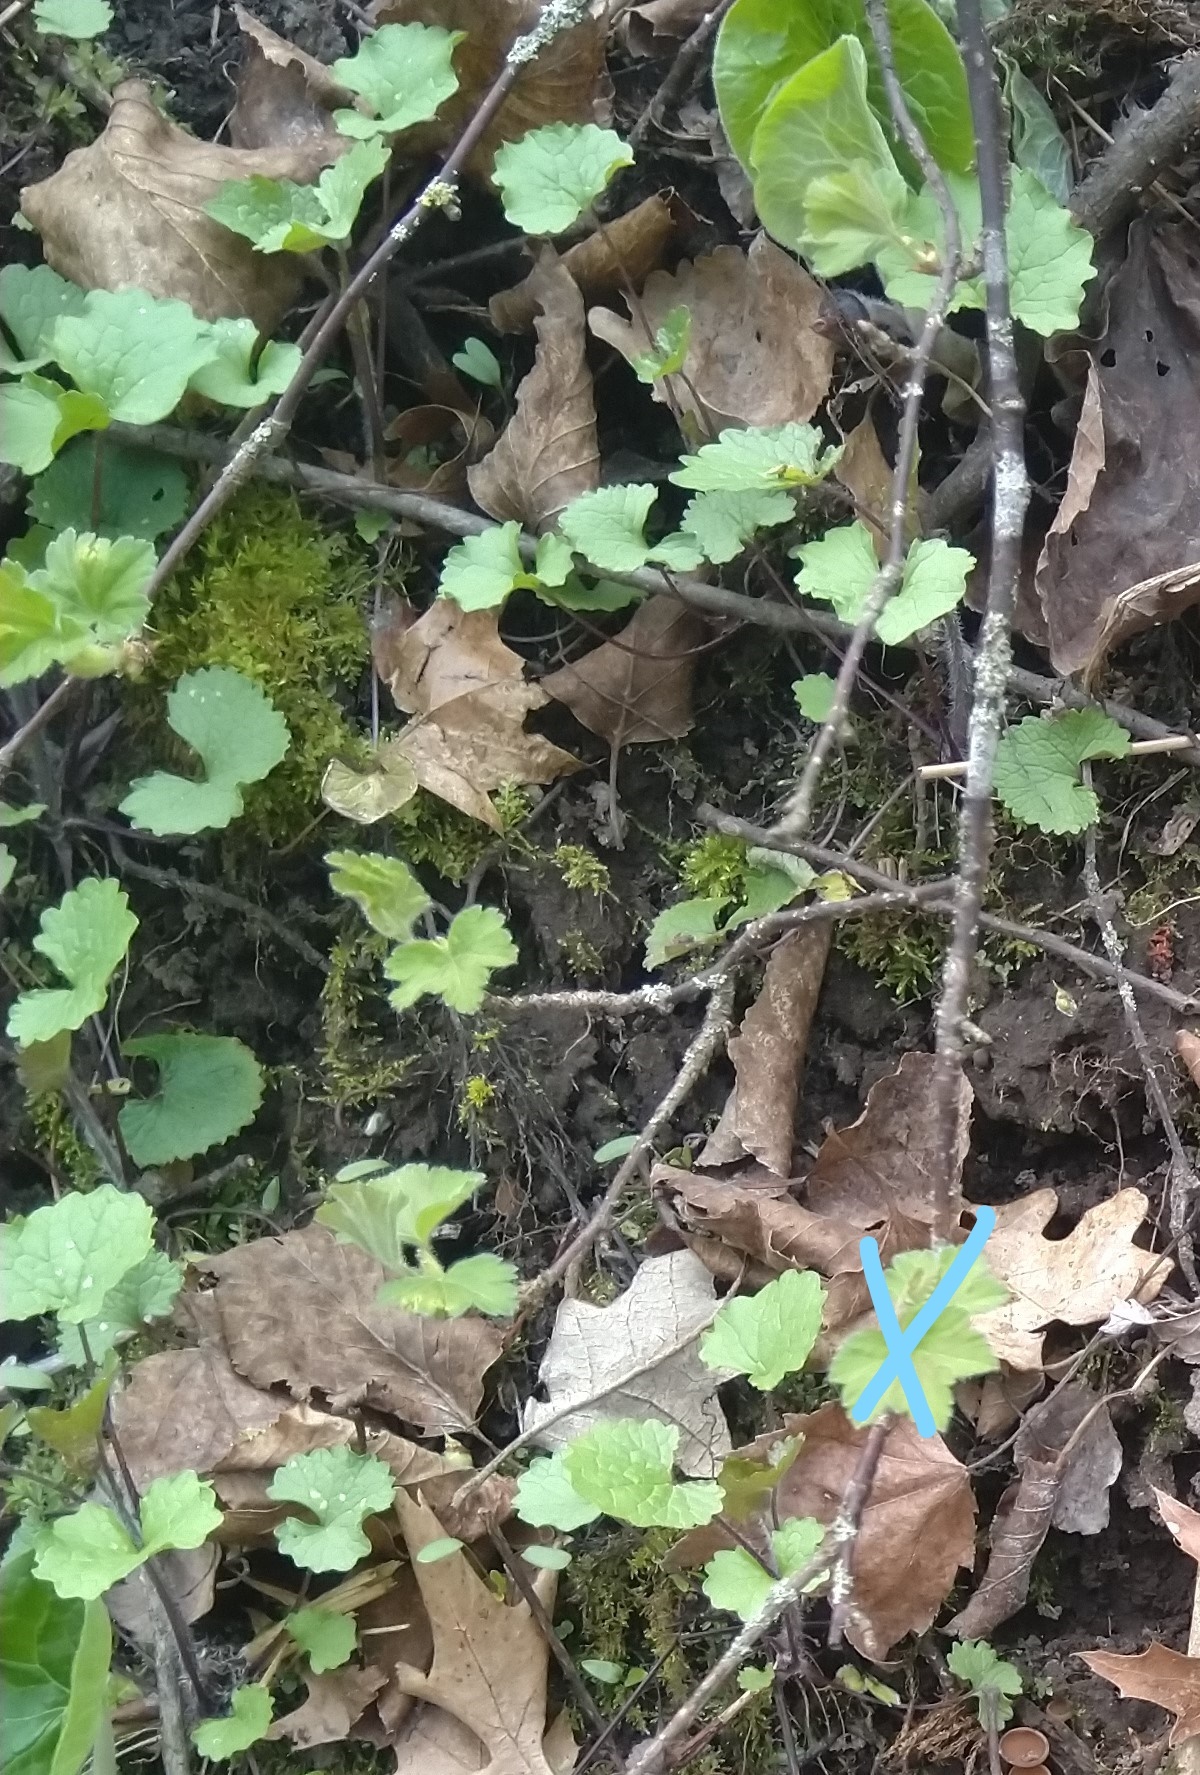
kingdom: Plantae
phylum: Tracheophyta
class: Magnoliopsida
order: Brassicales
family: Brassicaceae
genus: Alliaria
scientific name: Alliaria petiolata
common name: Garlic mustard
